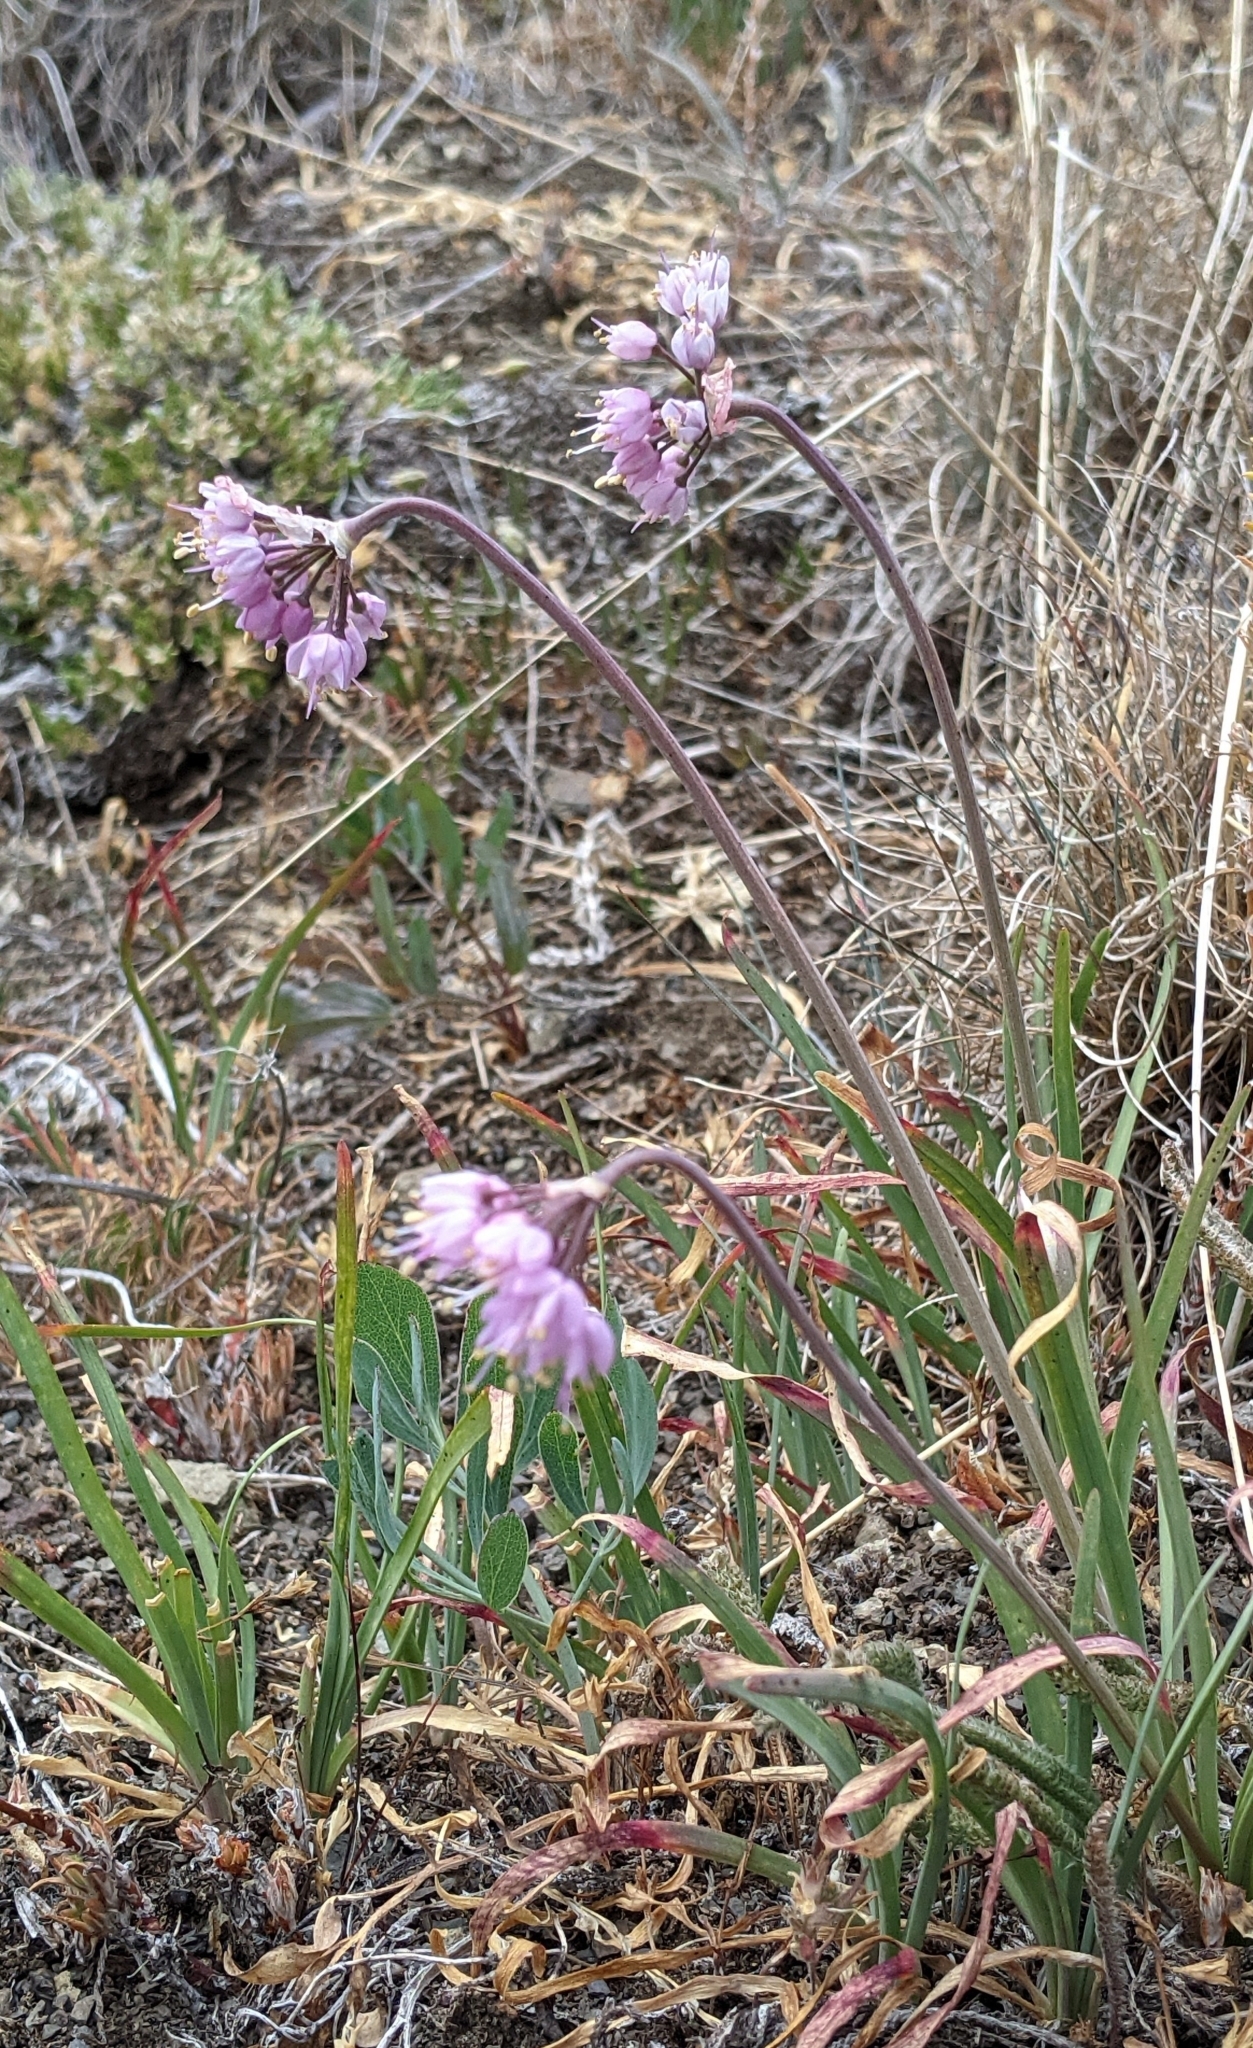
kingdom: Plantae
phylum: Tracheophyta
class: Liliopsida
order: Asparagales
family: Amaryllidaceae
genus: Allium
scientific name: Allium cernuum
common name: Nodding onion
